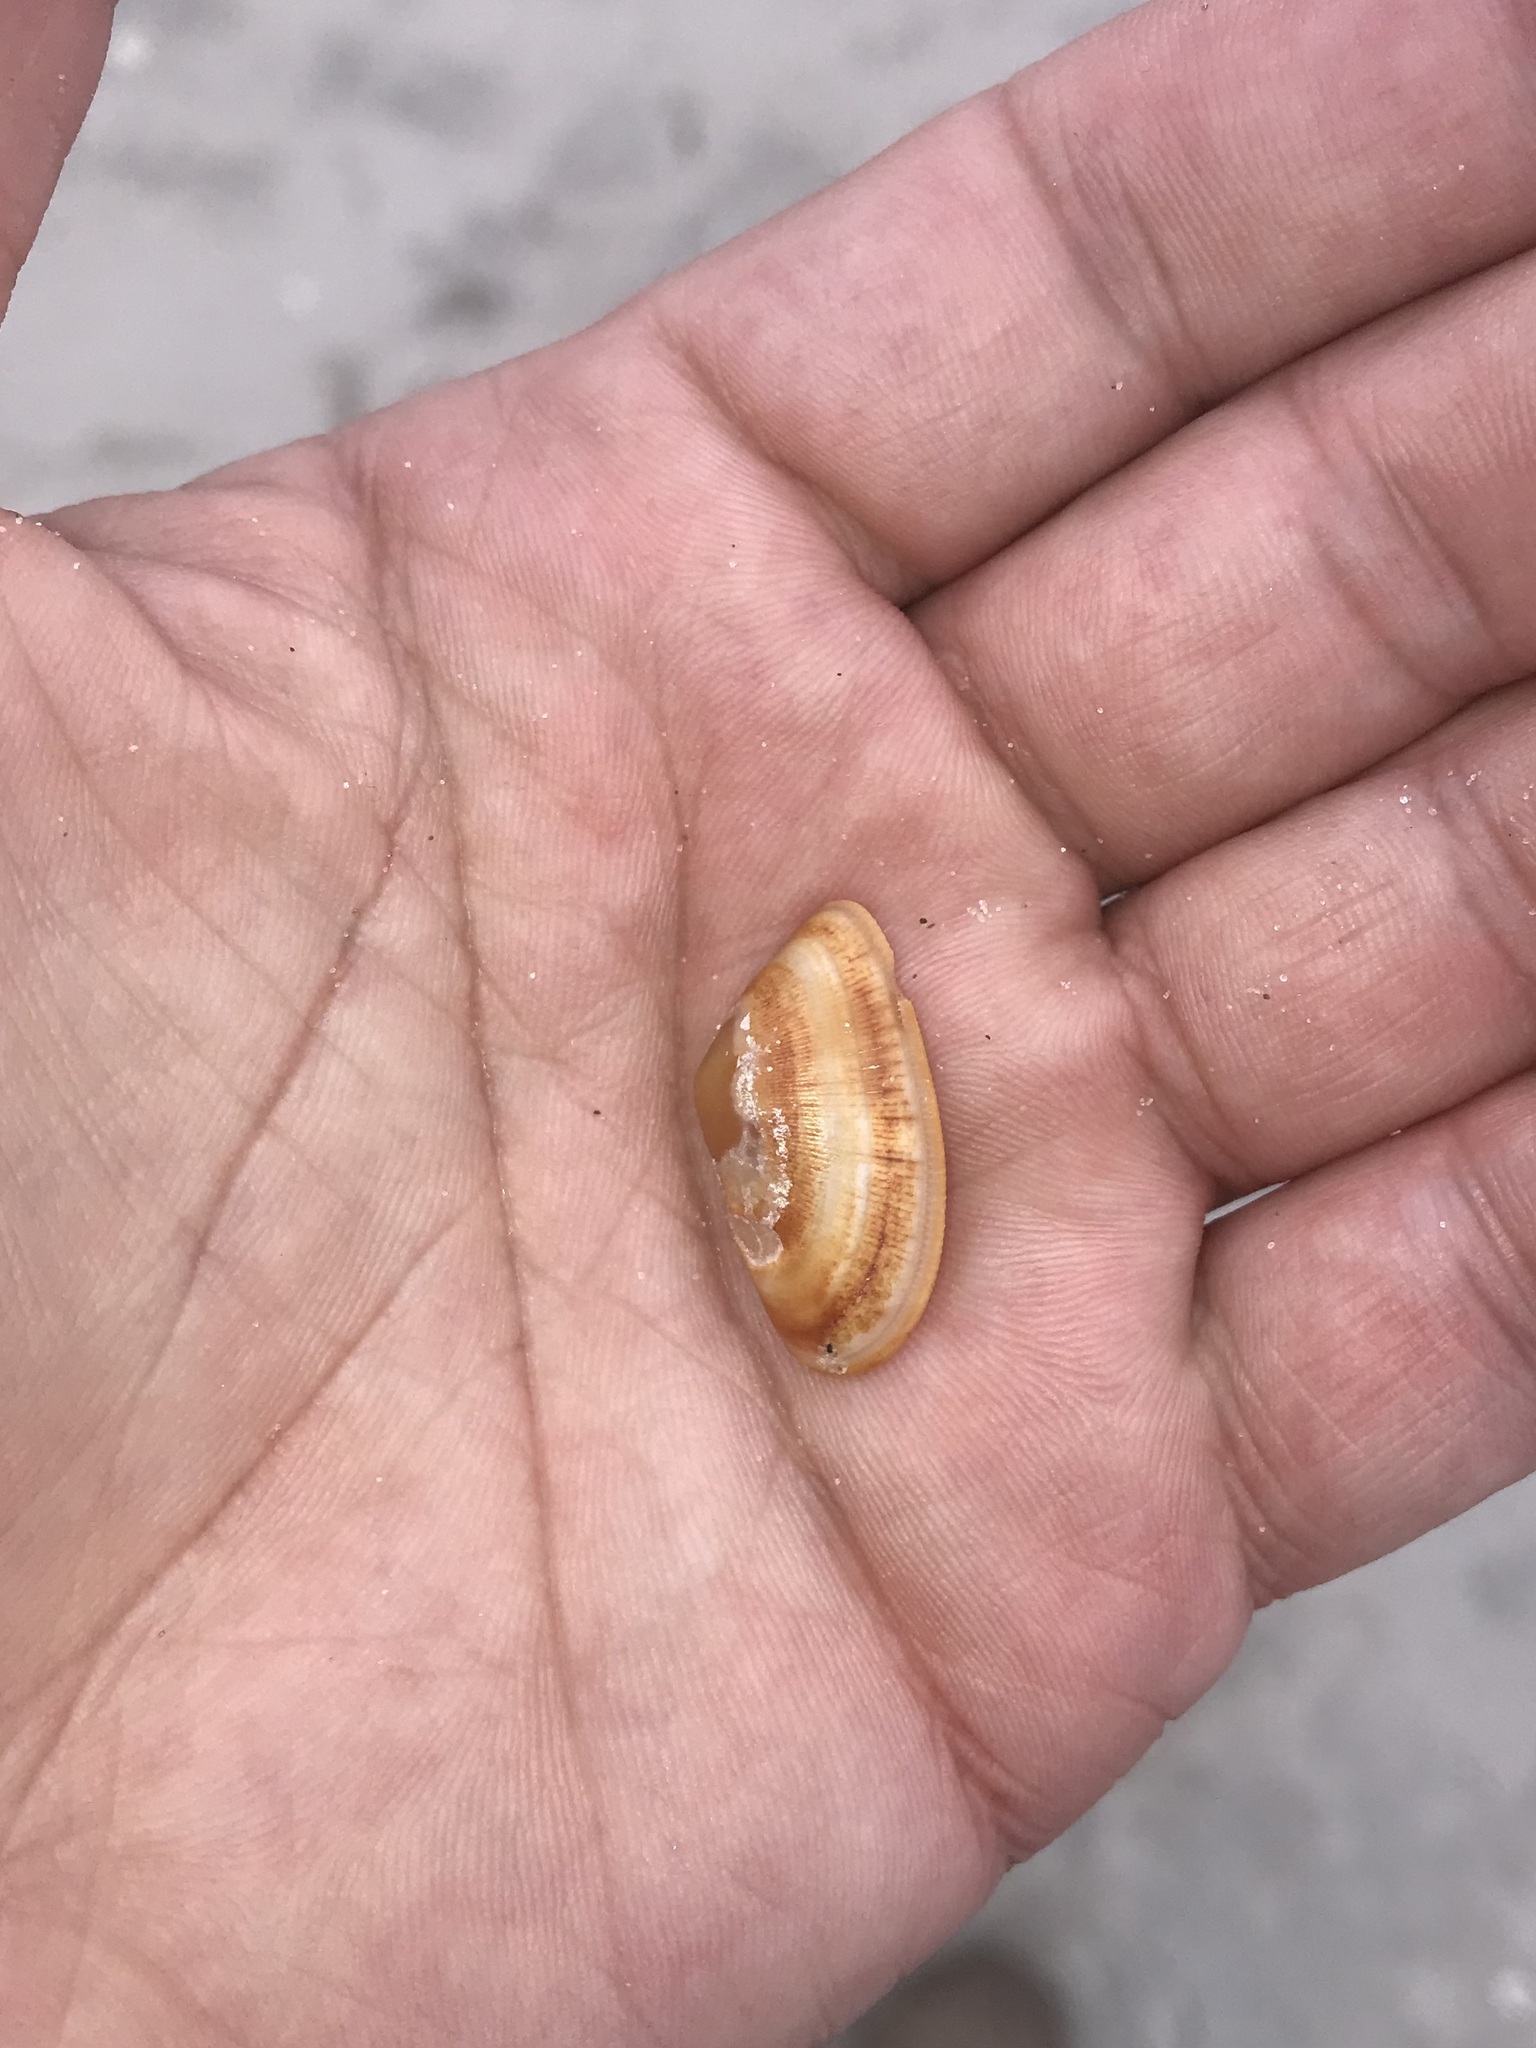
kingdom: Animalia
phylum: Mollusca
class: Bivalvia
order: Cardiida
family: Donacidae
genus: Donax
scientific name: Donax vittatus
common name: Banded wedge-shell
